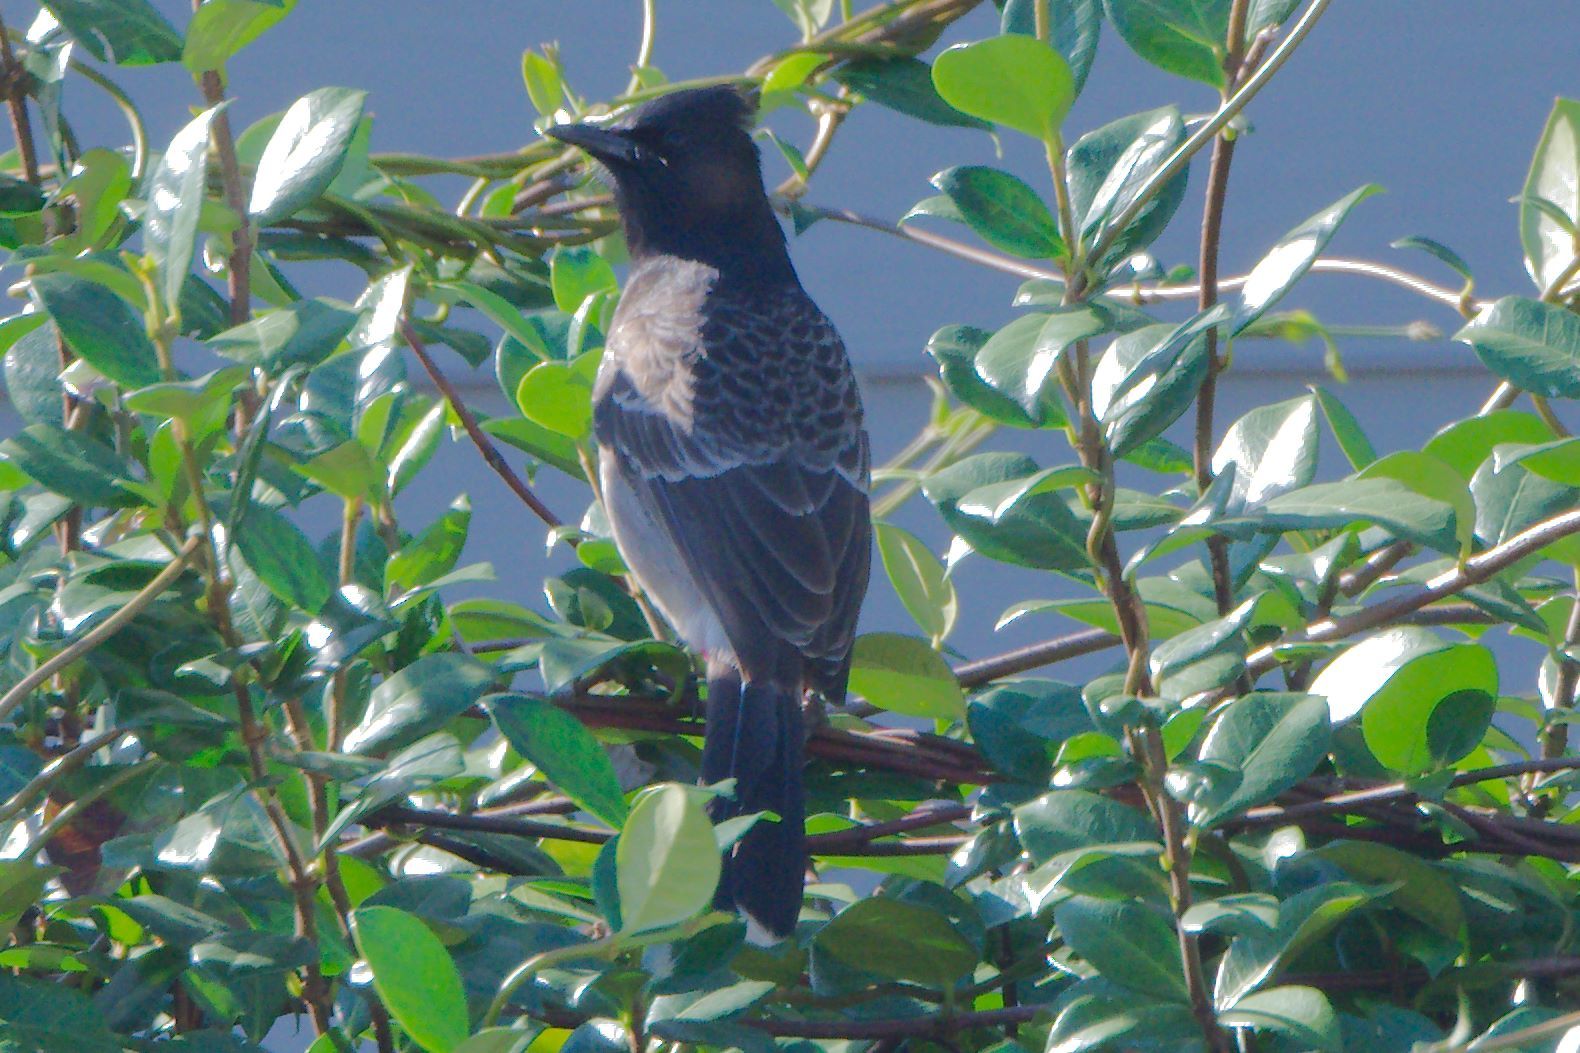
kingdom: Animalia
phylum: Chordata
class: Aves
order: Passeriformes
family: Pycnonotidae
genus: Pycnonotus
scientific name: Pycnonotus cafer
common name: Red-vented bulbul
